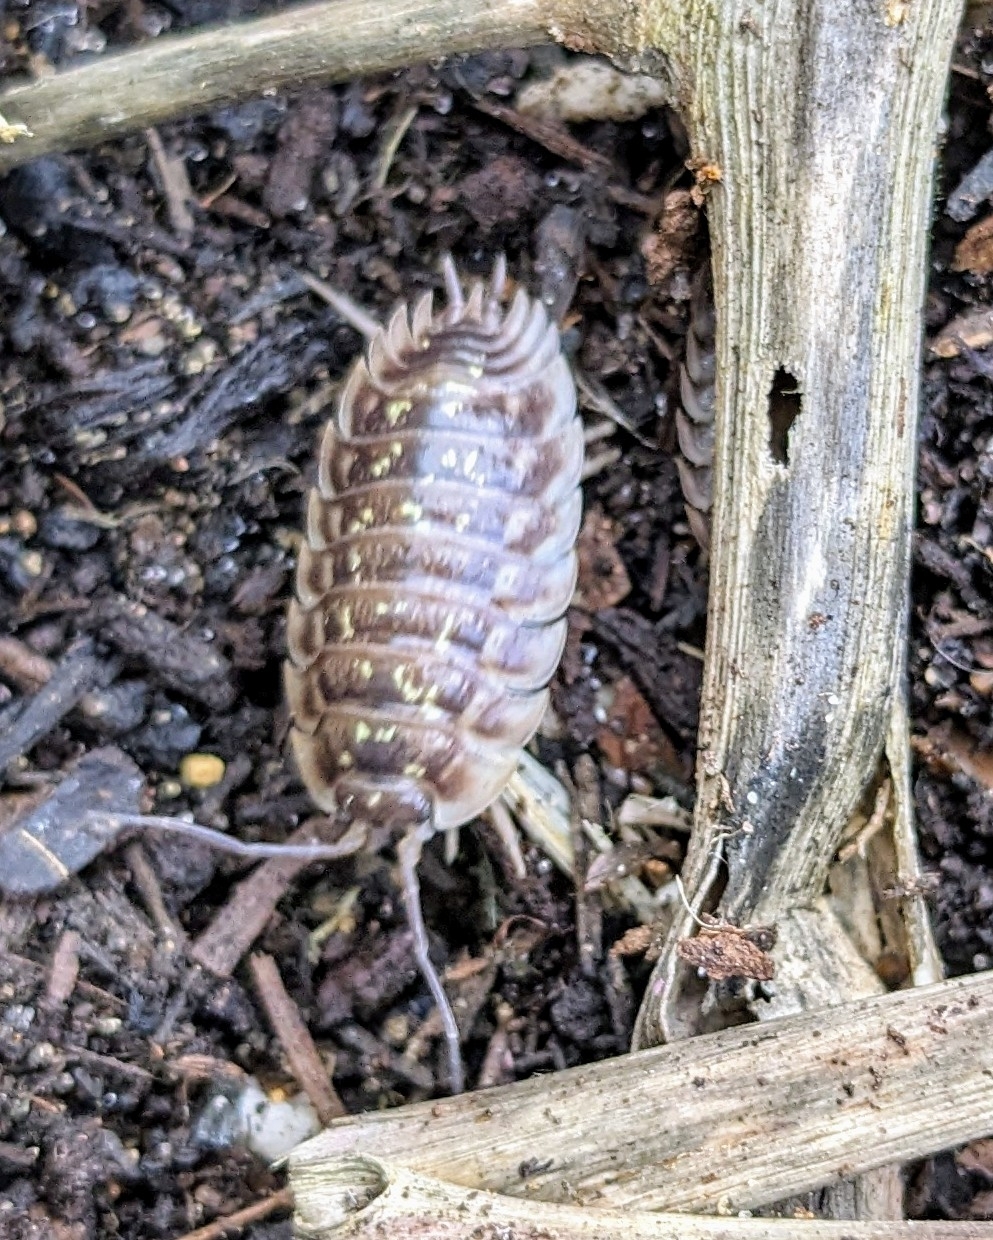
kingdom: Animalia
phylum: Arthropoda
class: Malacostraca
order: Isopoda
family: Oniscidae
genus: Oniscus
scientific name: Oniscus asellus
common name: Common shiny woodlouse
